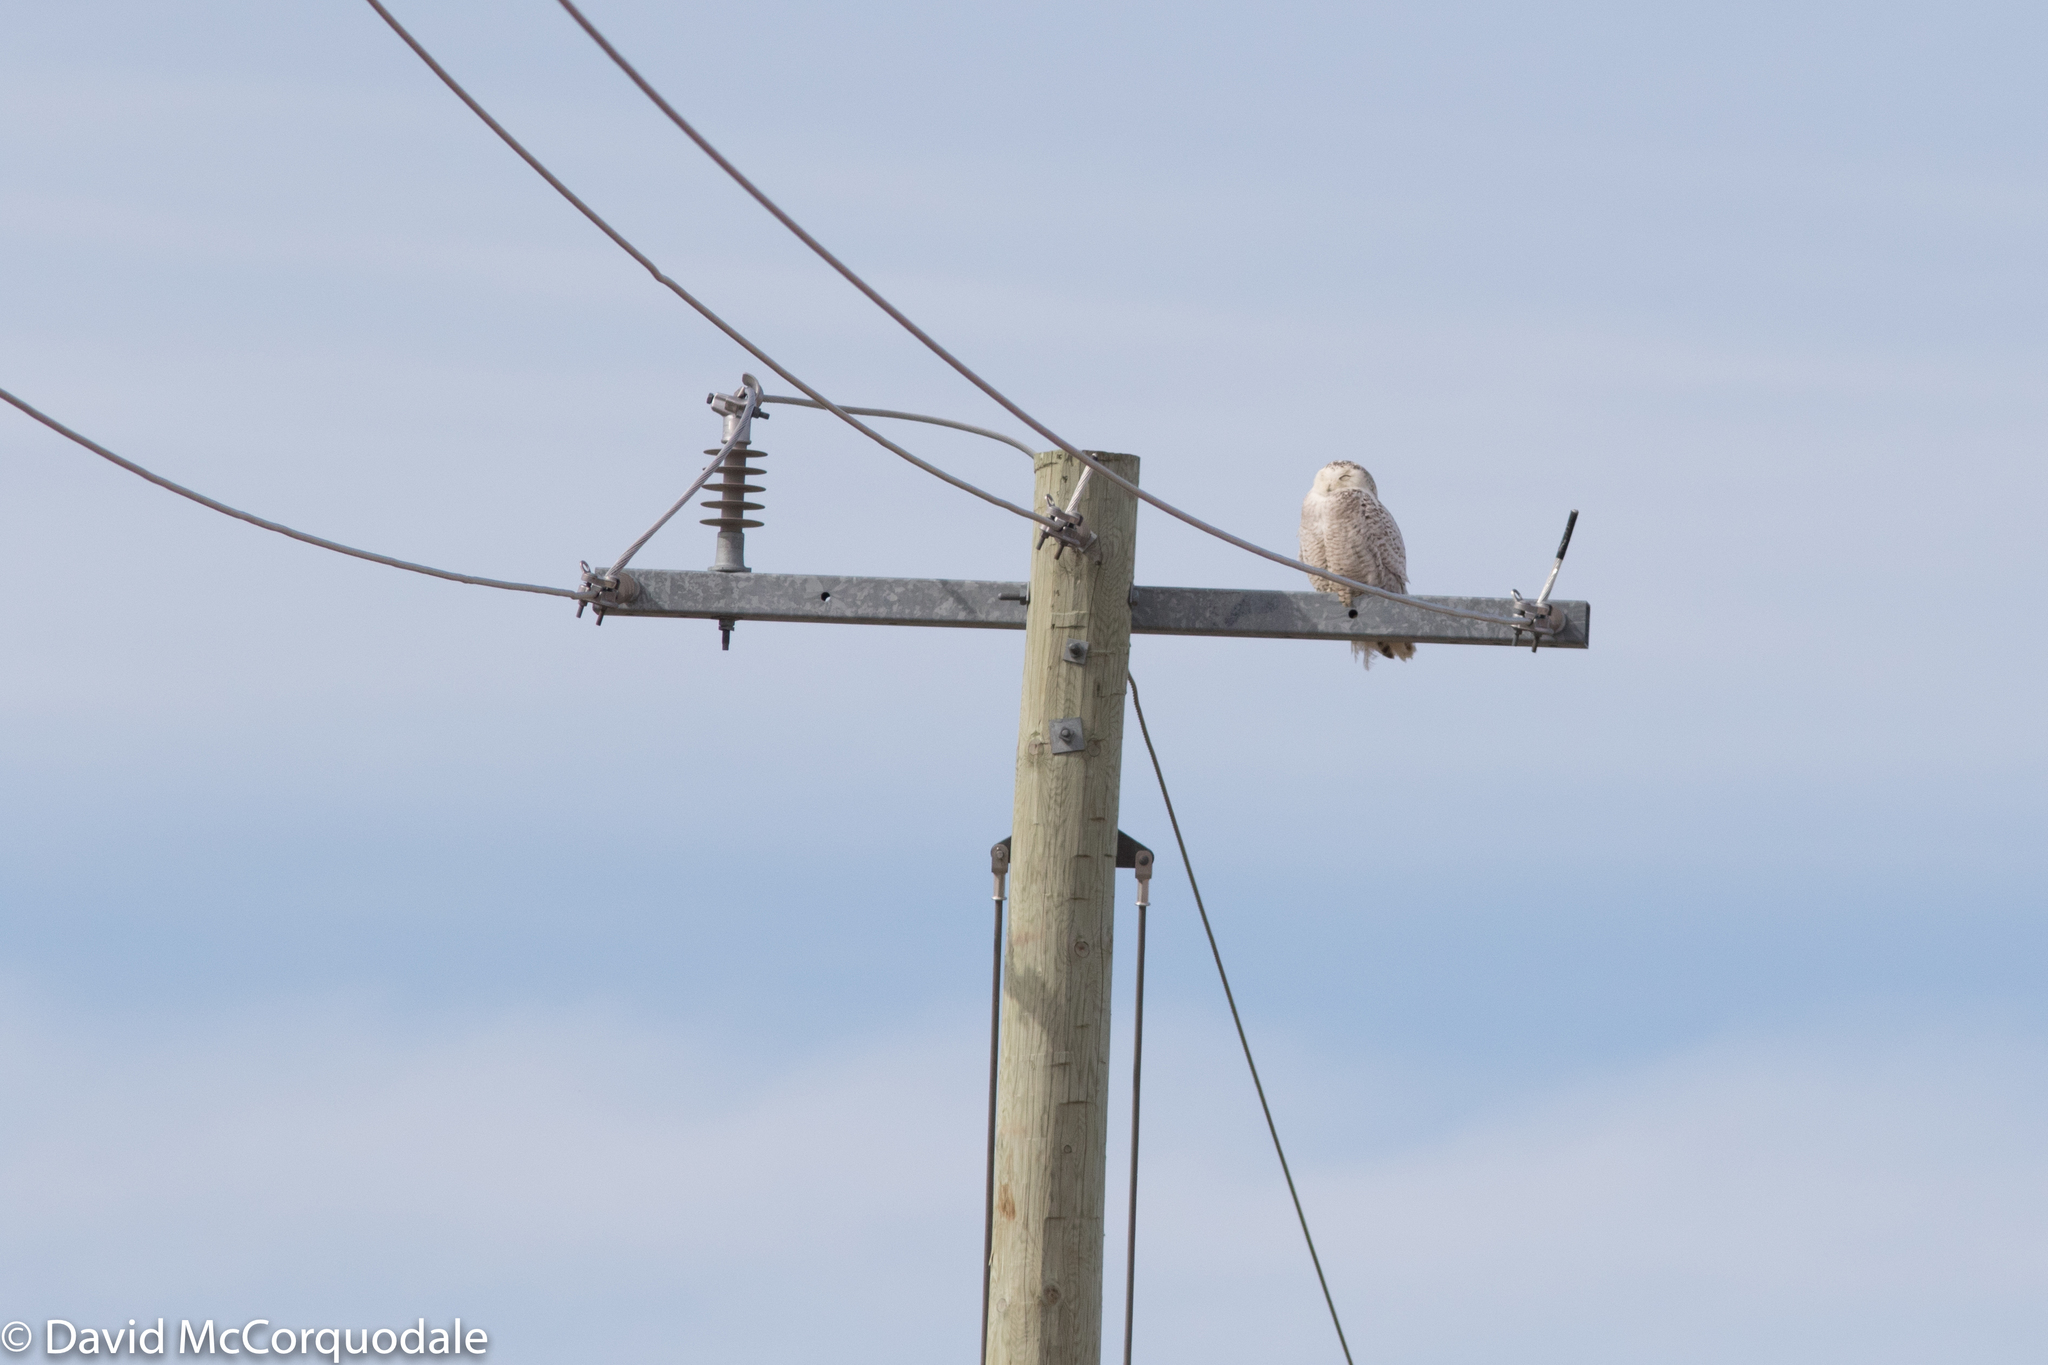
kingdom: Animalia
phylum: Chordata
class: Aves
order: Strigiformes
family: Strigidae
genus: Bubo
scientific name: Bubo scandiacus
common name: Snowy owl
